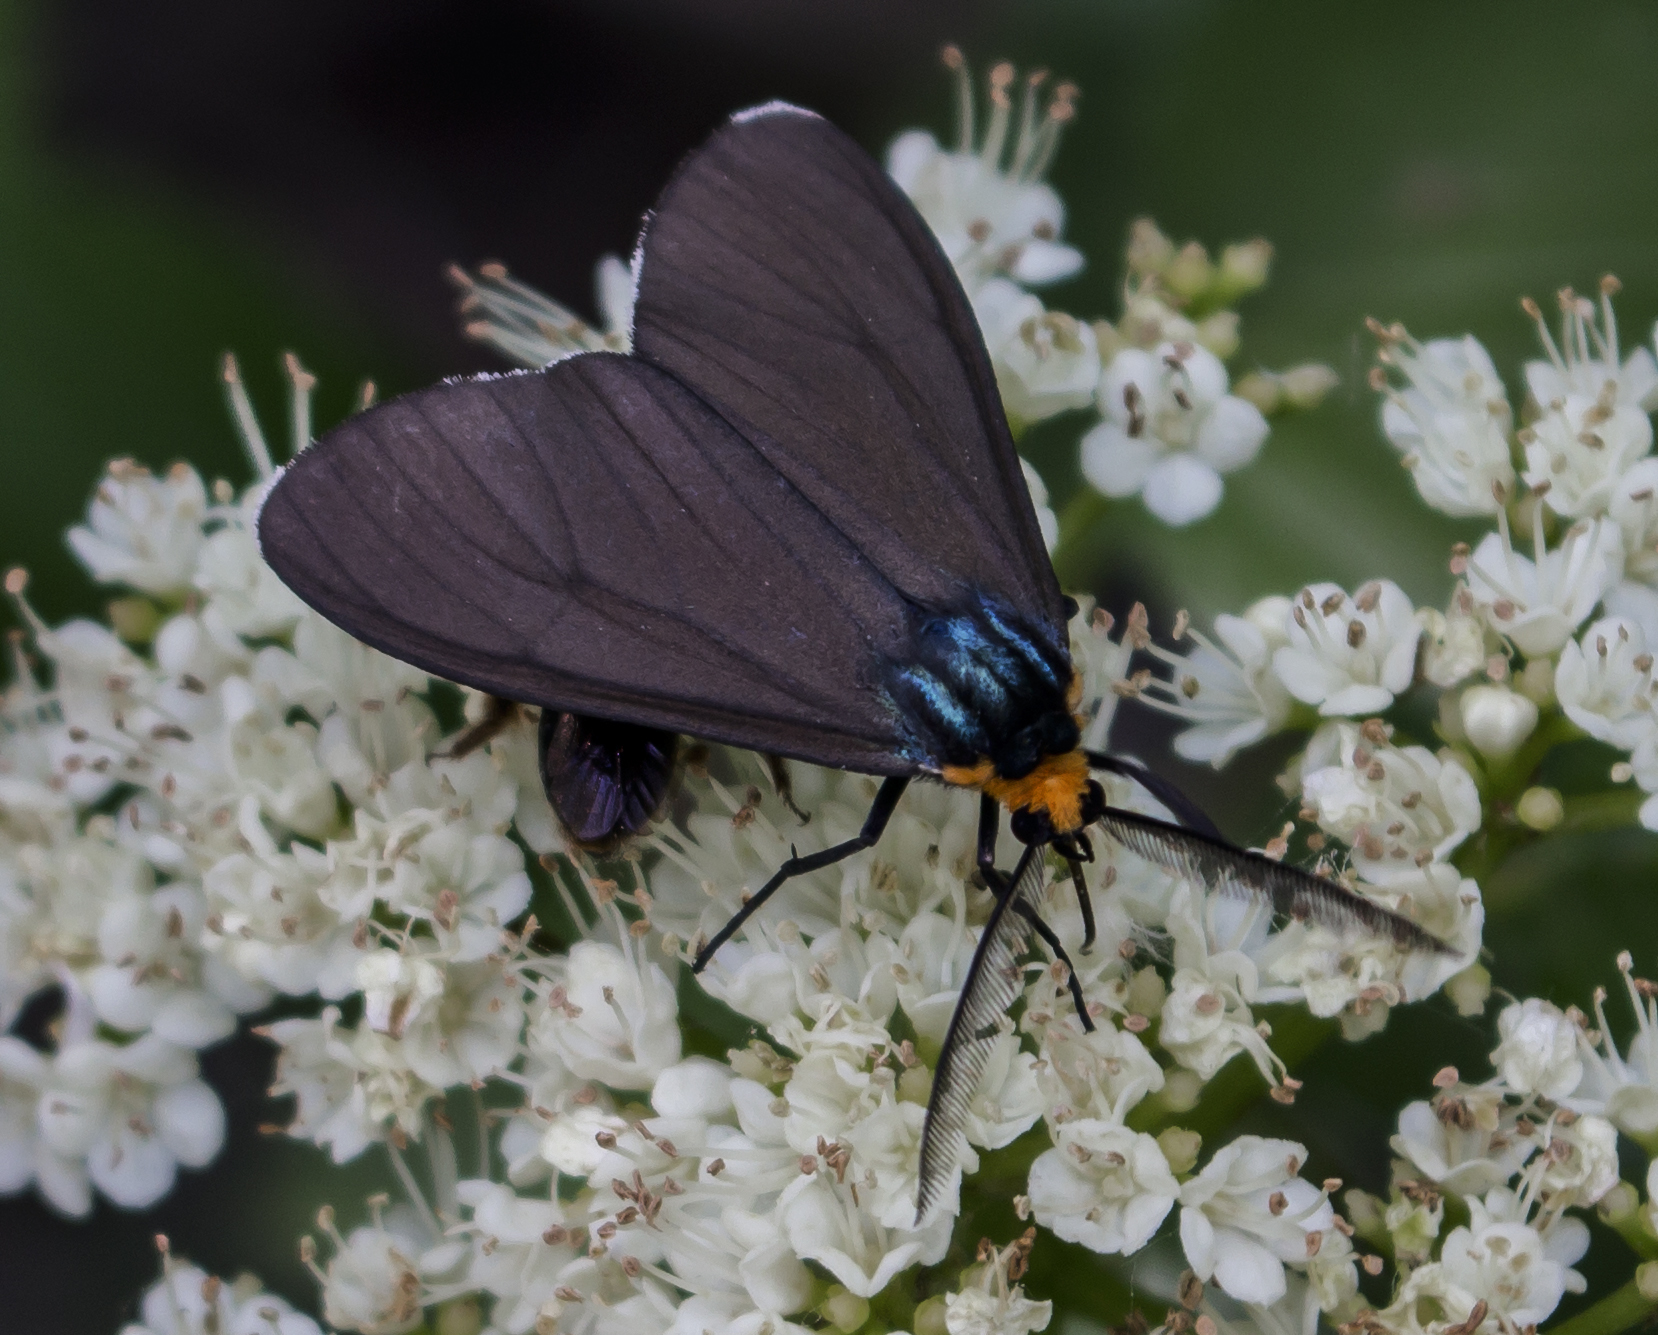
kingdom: Animalia
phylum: Arthropoda
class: Insecta
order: Lepidoptera
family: Erebidae
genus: Ctenucha
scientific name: Ctenucha virginica
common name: Virginia ctenucha moth
